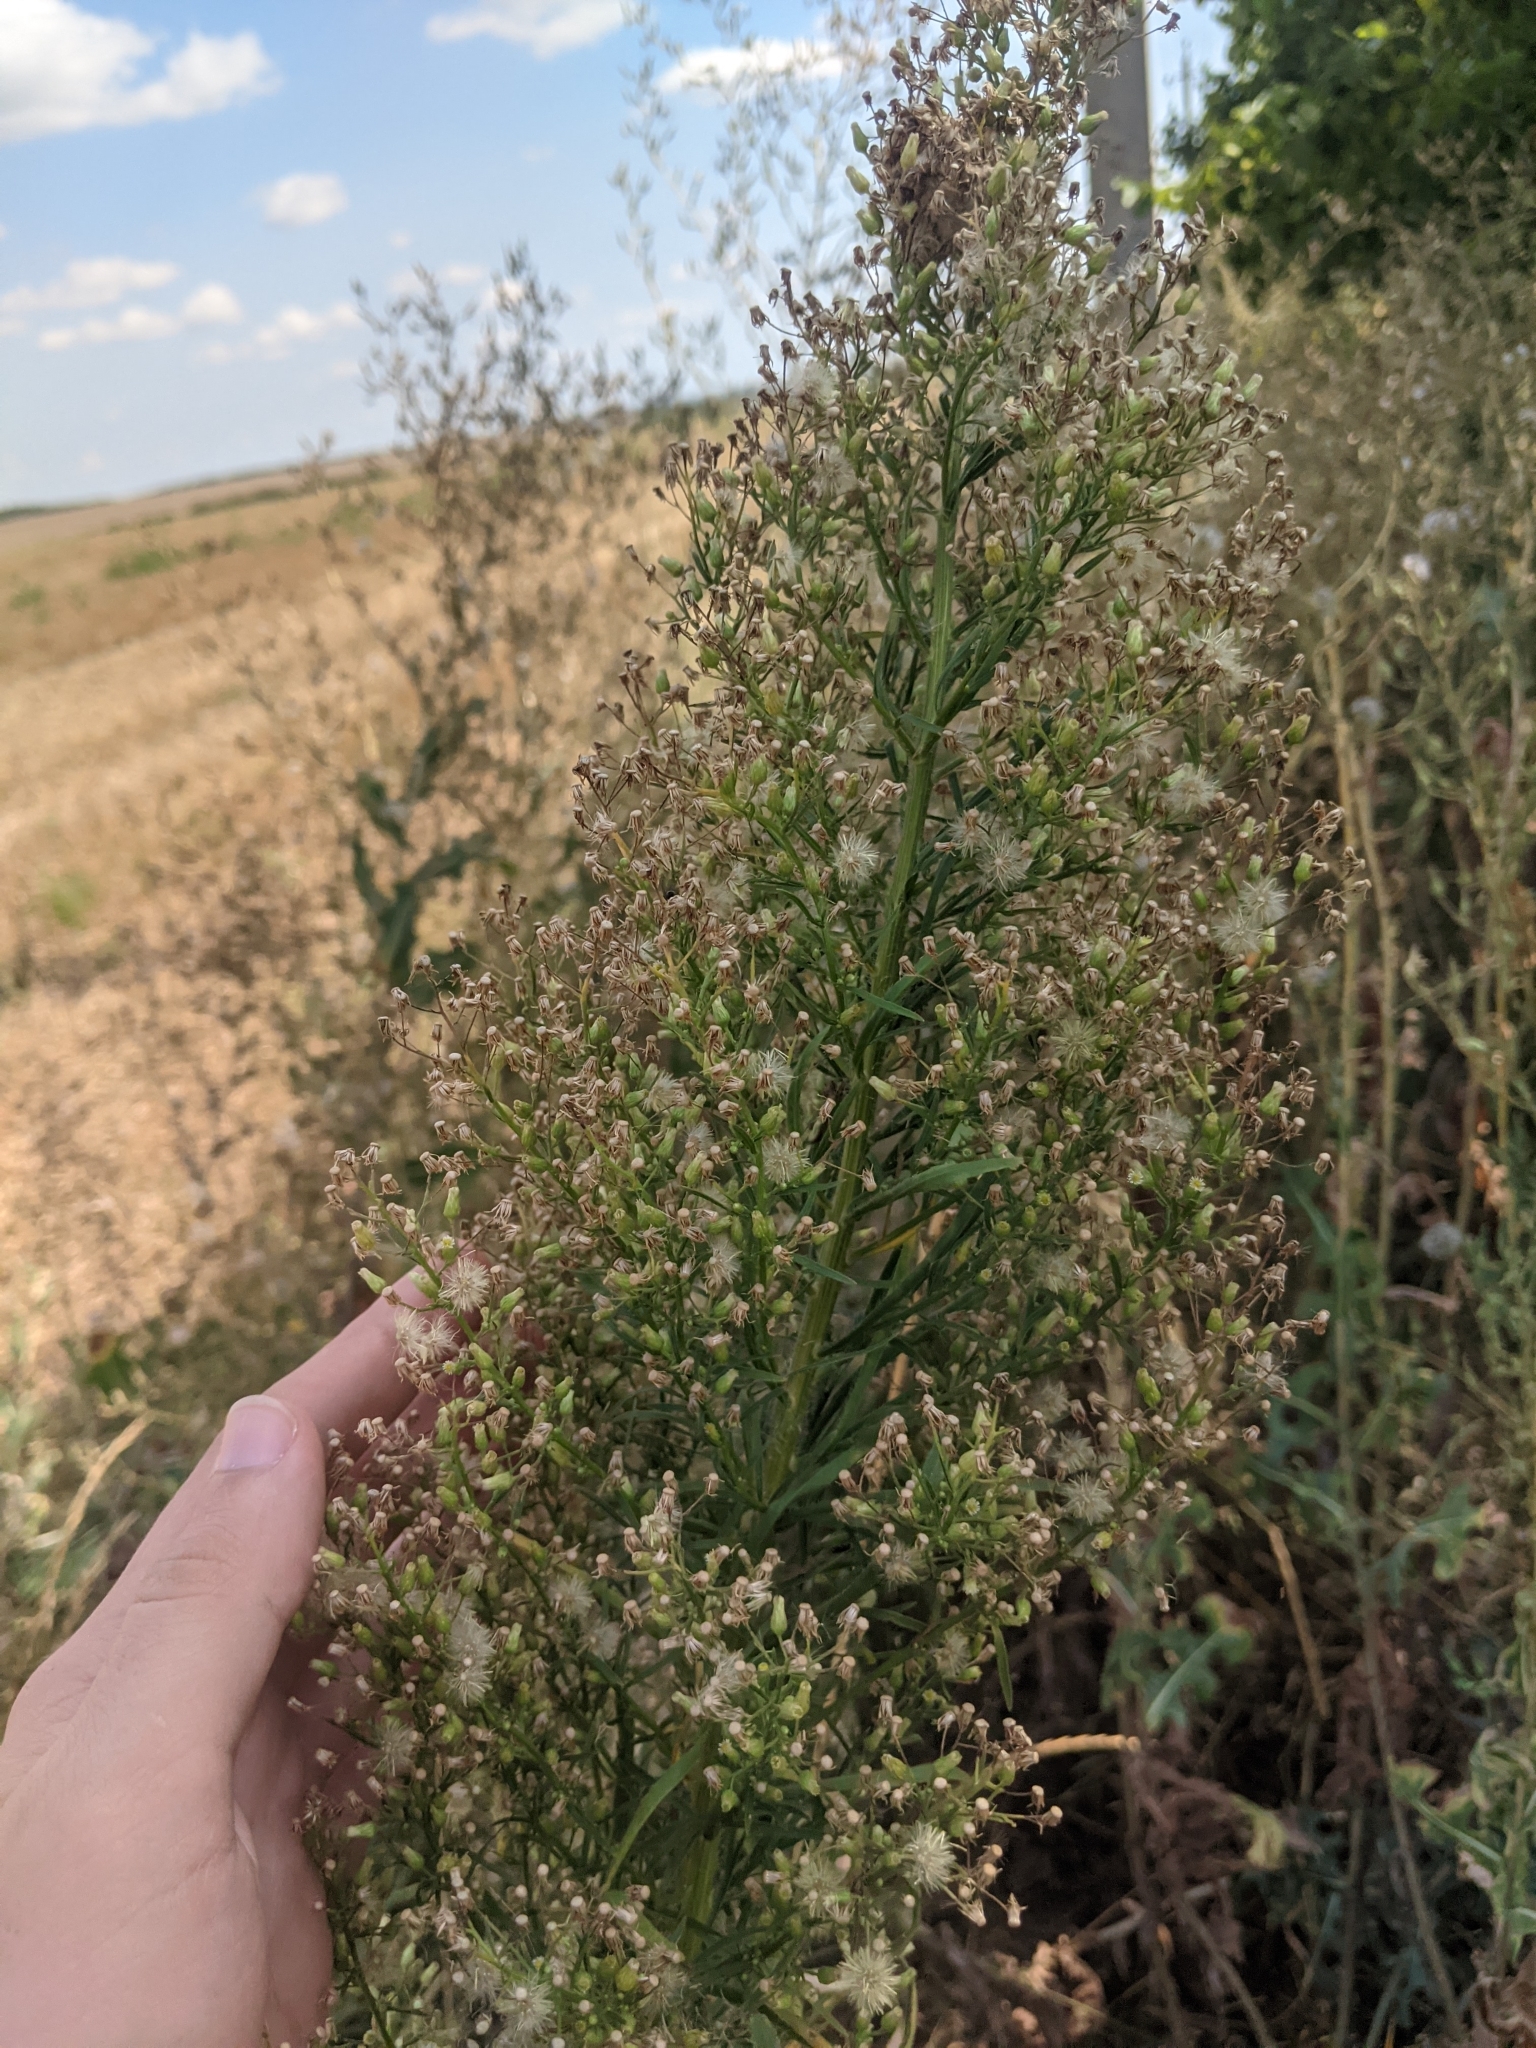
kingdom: Plantae
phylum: Tracheophyta
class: Magnoliopsida
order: Asterales
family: Asteraceae
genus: Erigeron
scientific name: Erigeron canadensis
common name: Canadian fleabane
